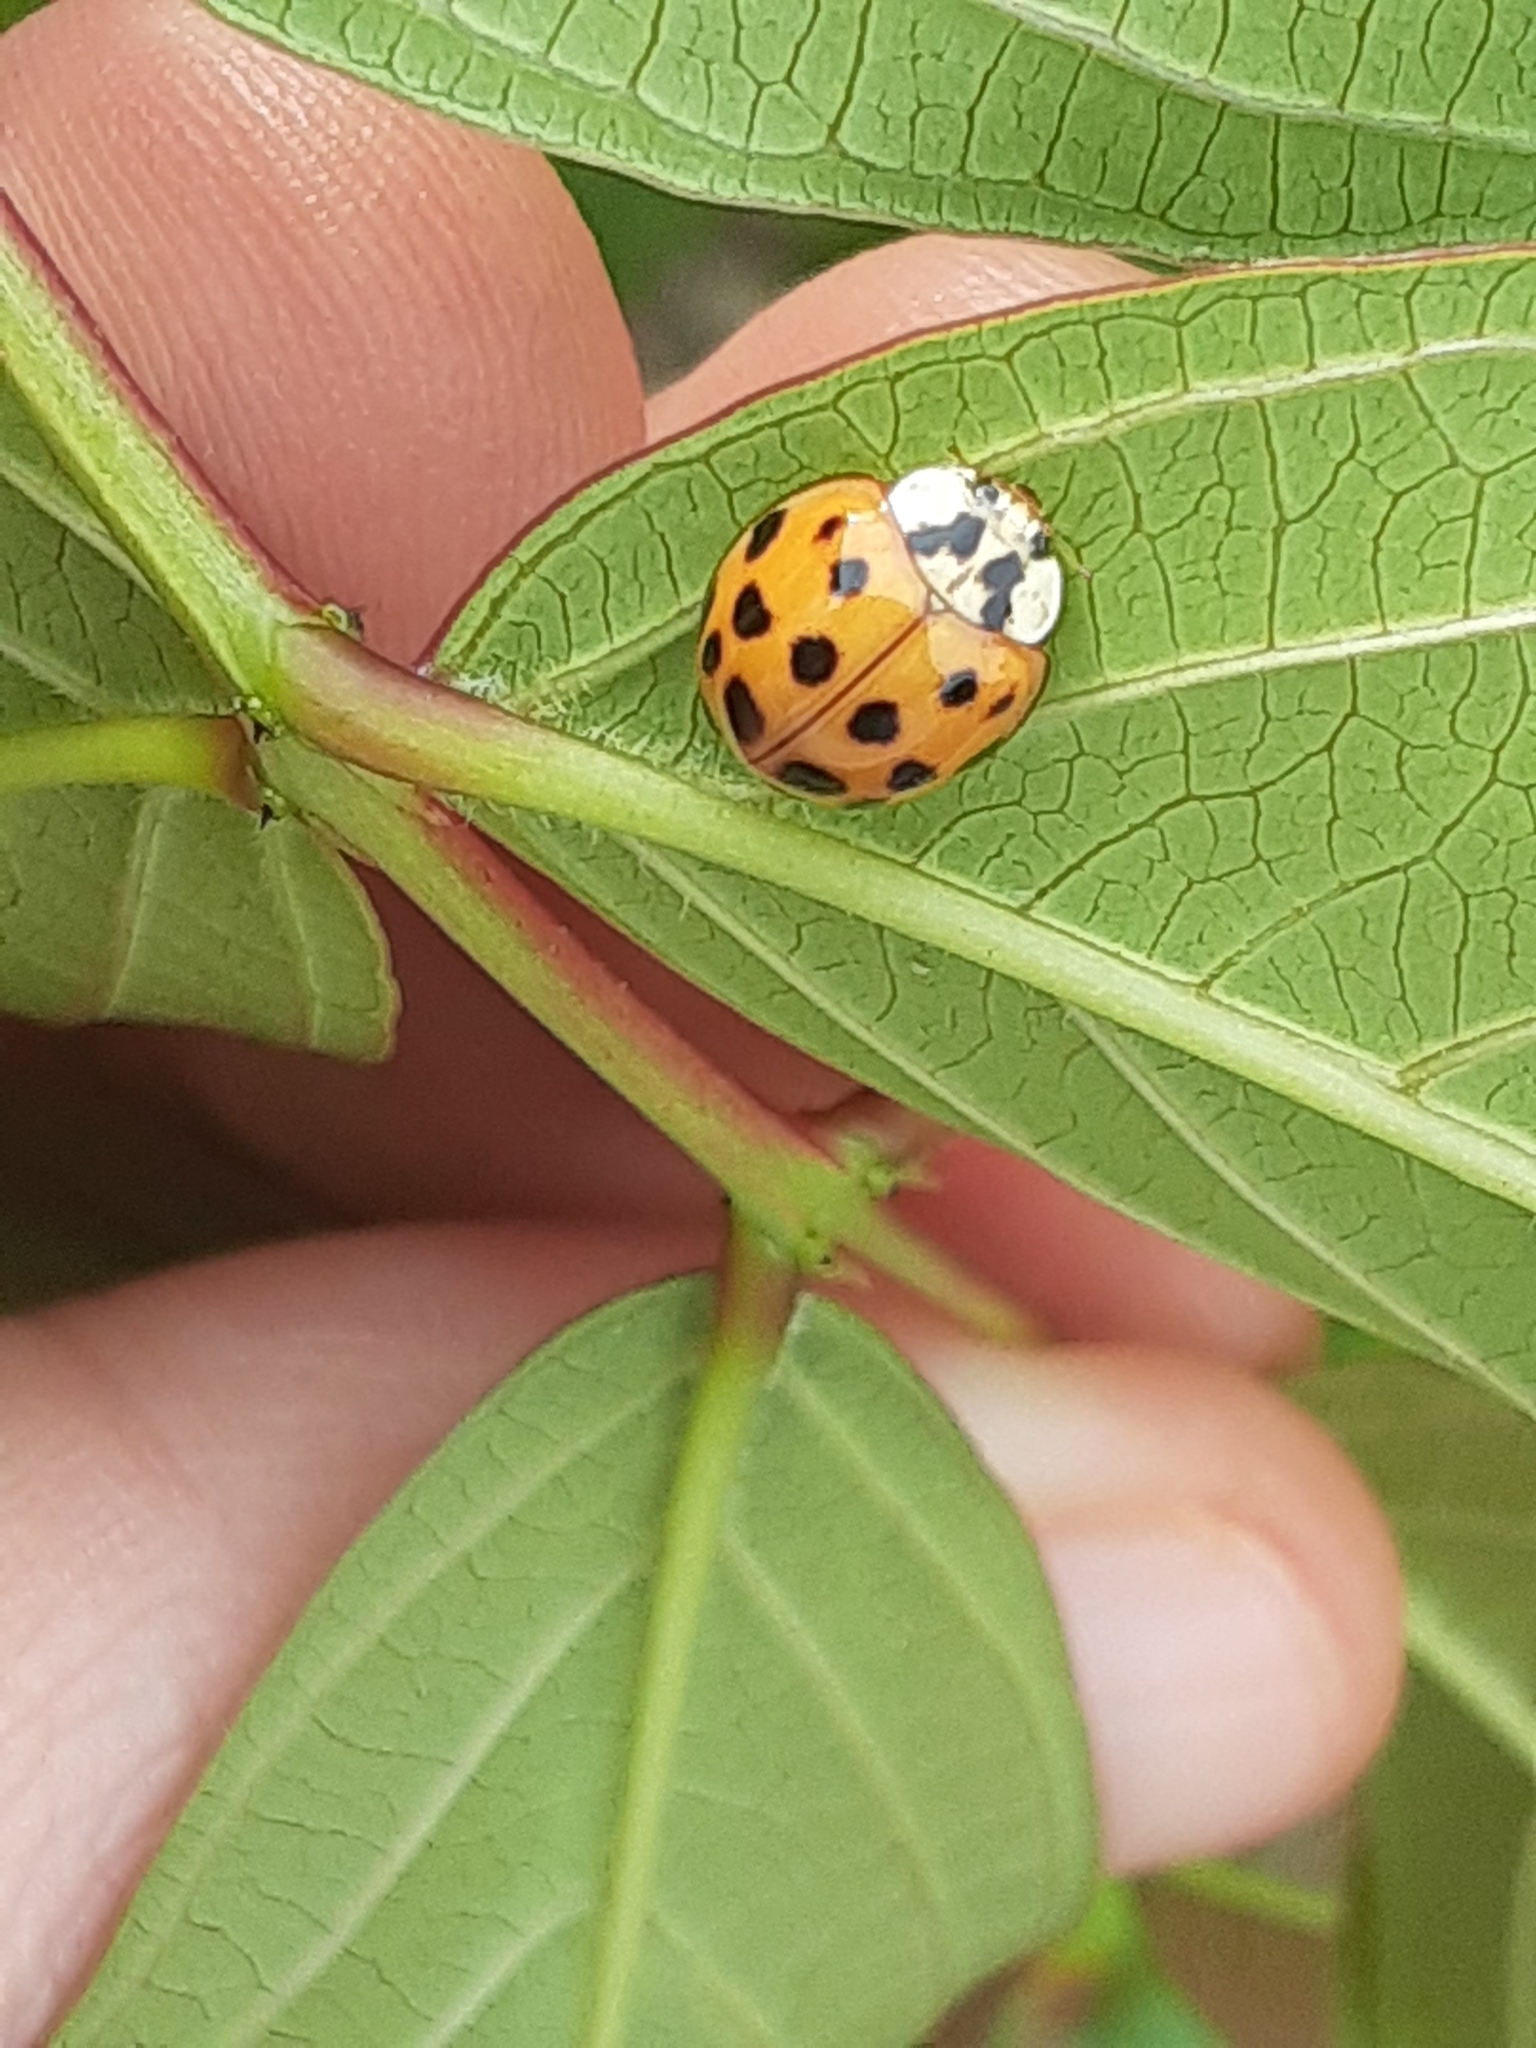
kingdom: Animalia
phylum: Arthropoda
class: Insecta
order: Coleoptera
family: Coccinellidae
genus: Harmonia
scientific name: Harmonia axyridis
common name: Harlequin ladybird
